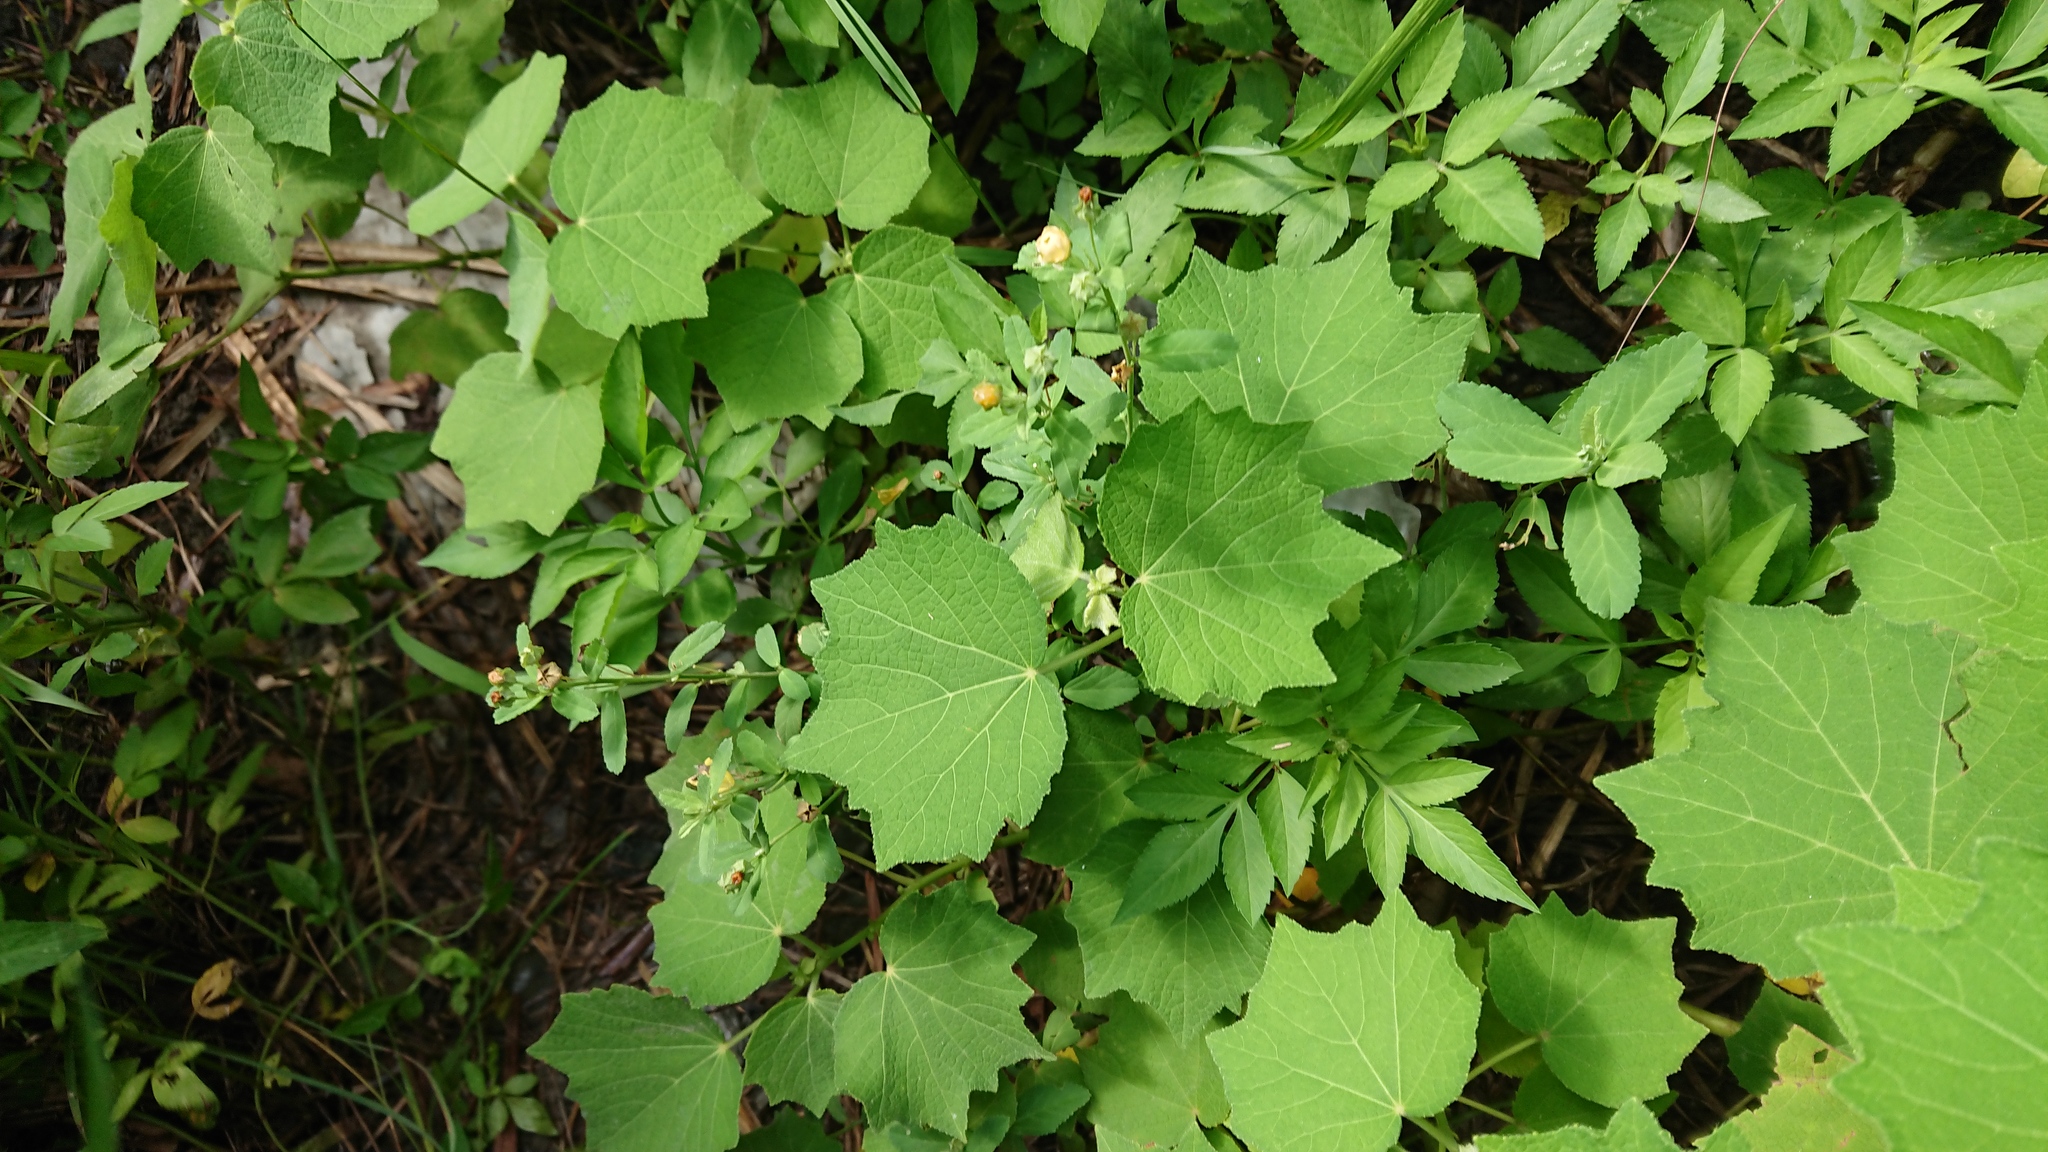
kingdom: Plantae
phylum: Tracheophyta
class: Magnoliopsida
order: Malvales
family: Malvaceae
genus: Urena
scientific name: Urena lobata
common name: Caesarweed
